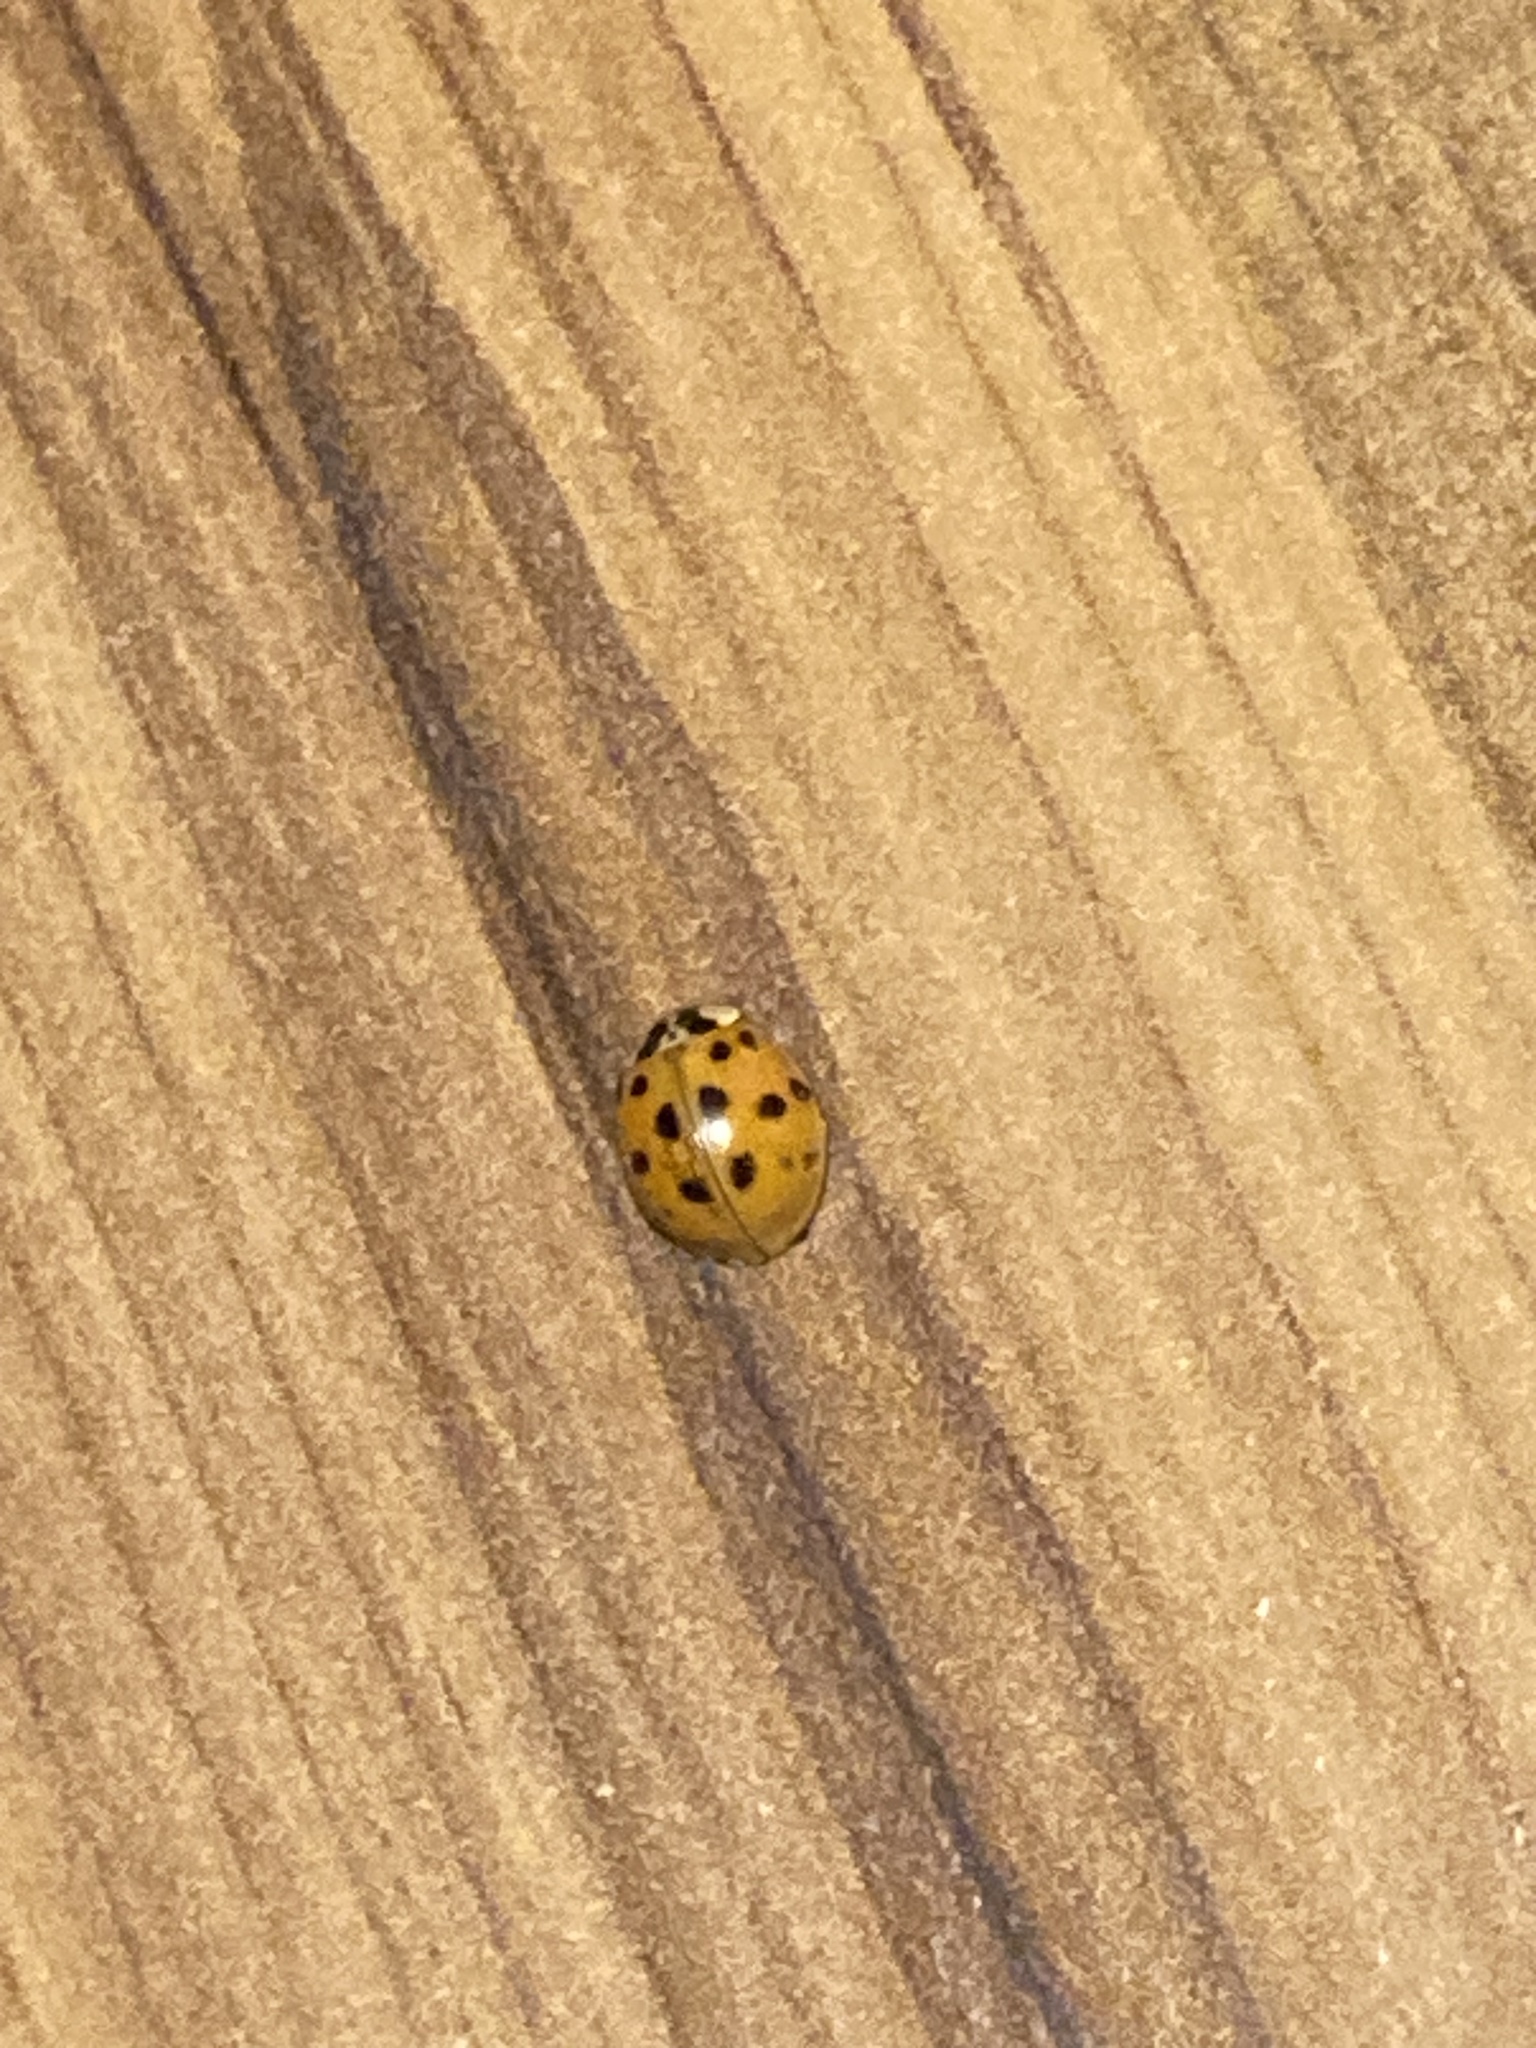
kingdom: Animalia
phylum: Arthropoda
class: Insecta
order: Coleoptera
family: Coccinellidae
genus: Harmonia
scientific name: Harmonia axyridis
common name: Harlequin ladybird
